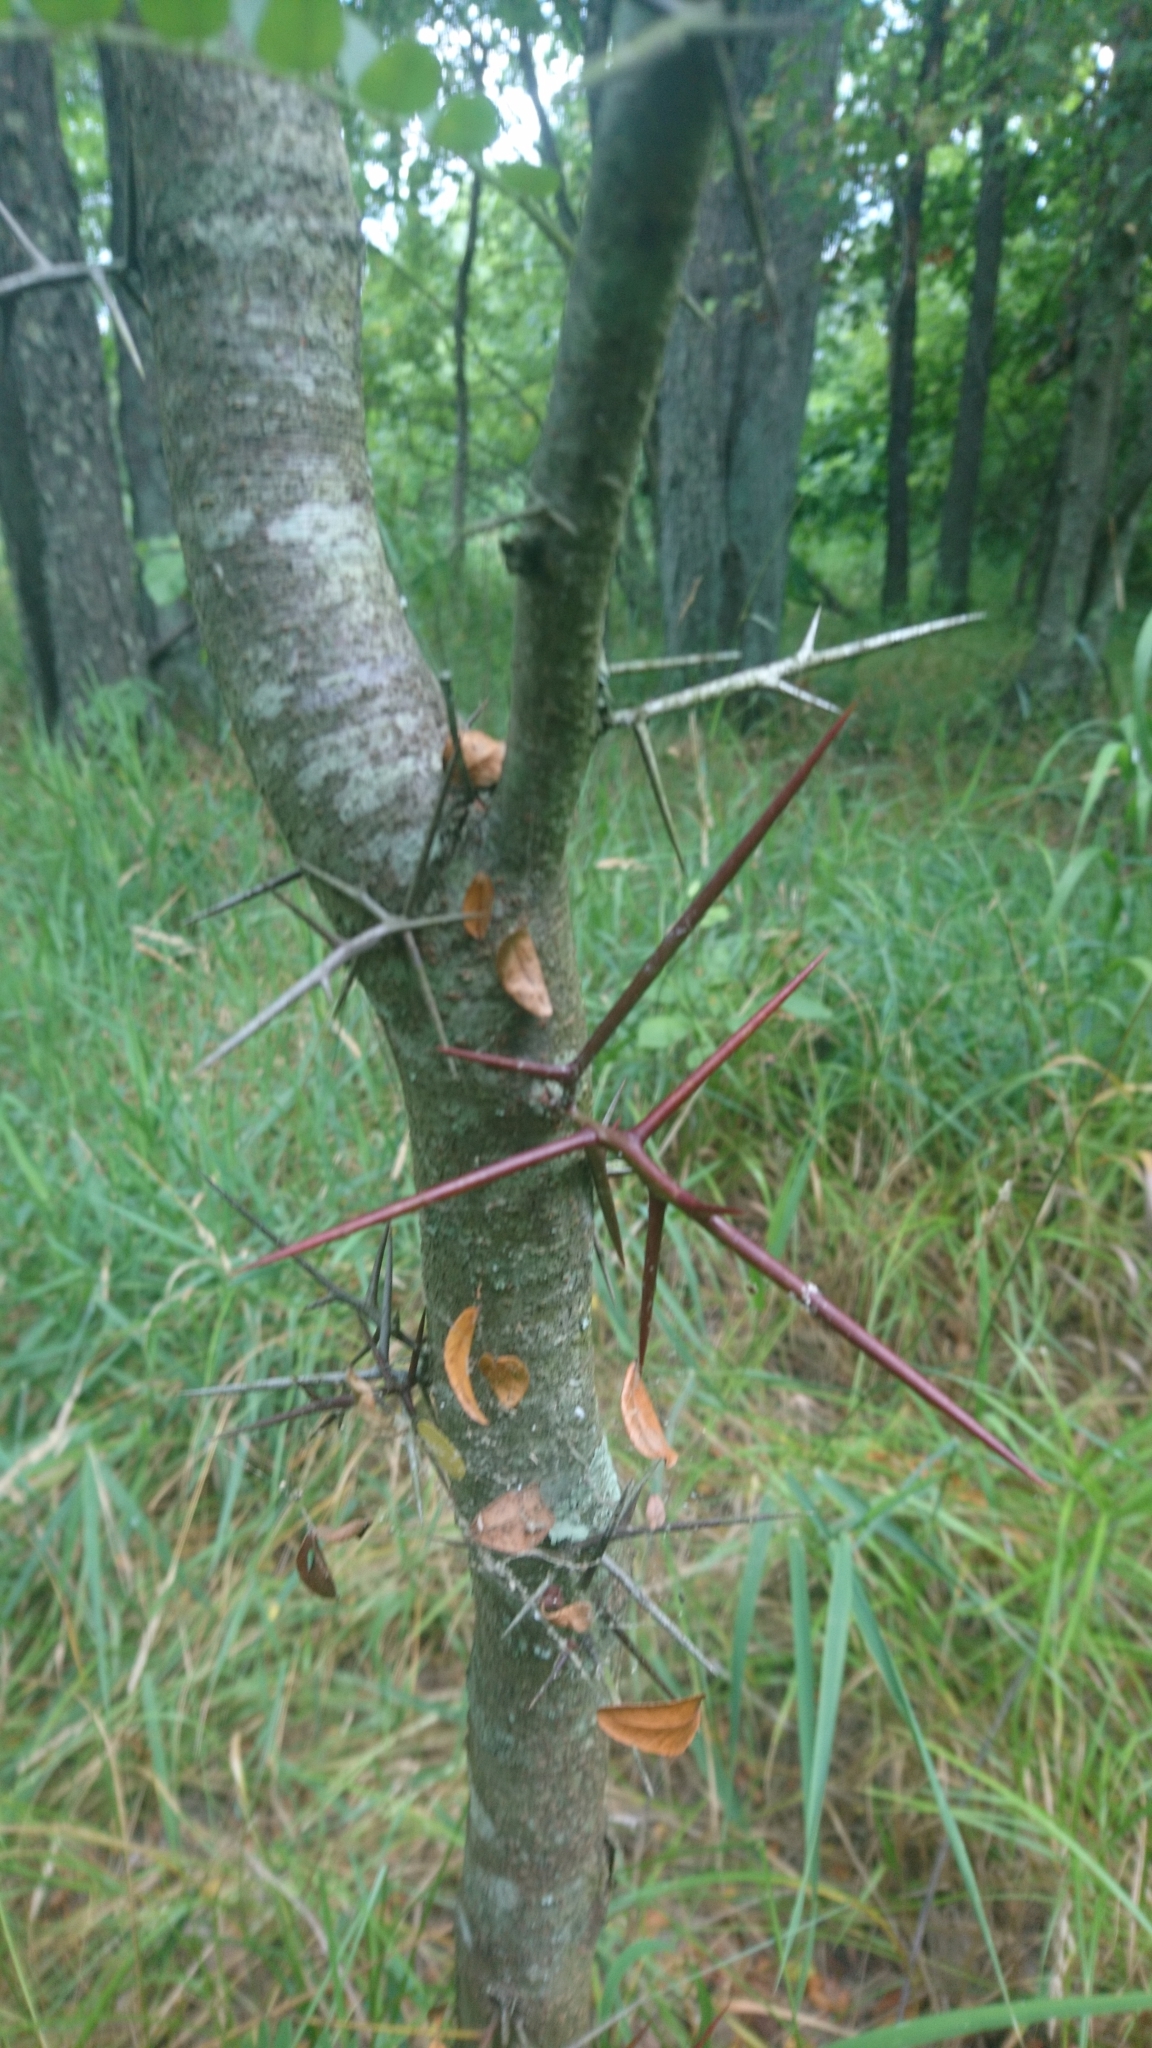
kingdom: Plantae
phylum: Tracheophyta
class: Magnoliopsida
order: Fabales
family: Fabaceae
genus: Gleditsia
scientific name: Gleditsia triacanthos
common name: Common honeylocust
